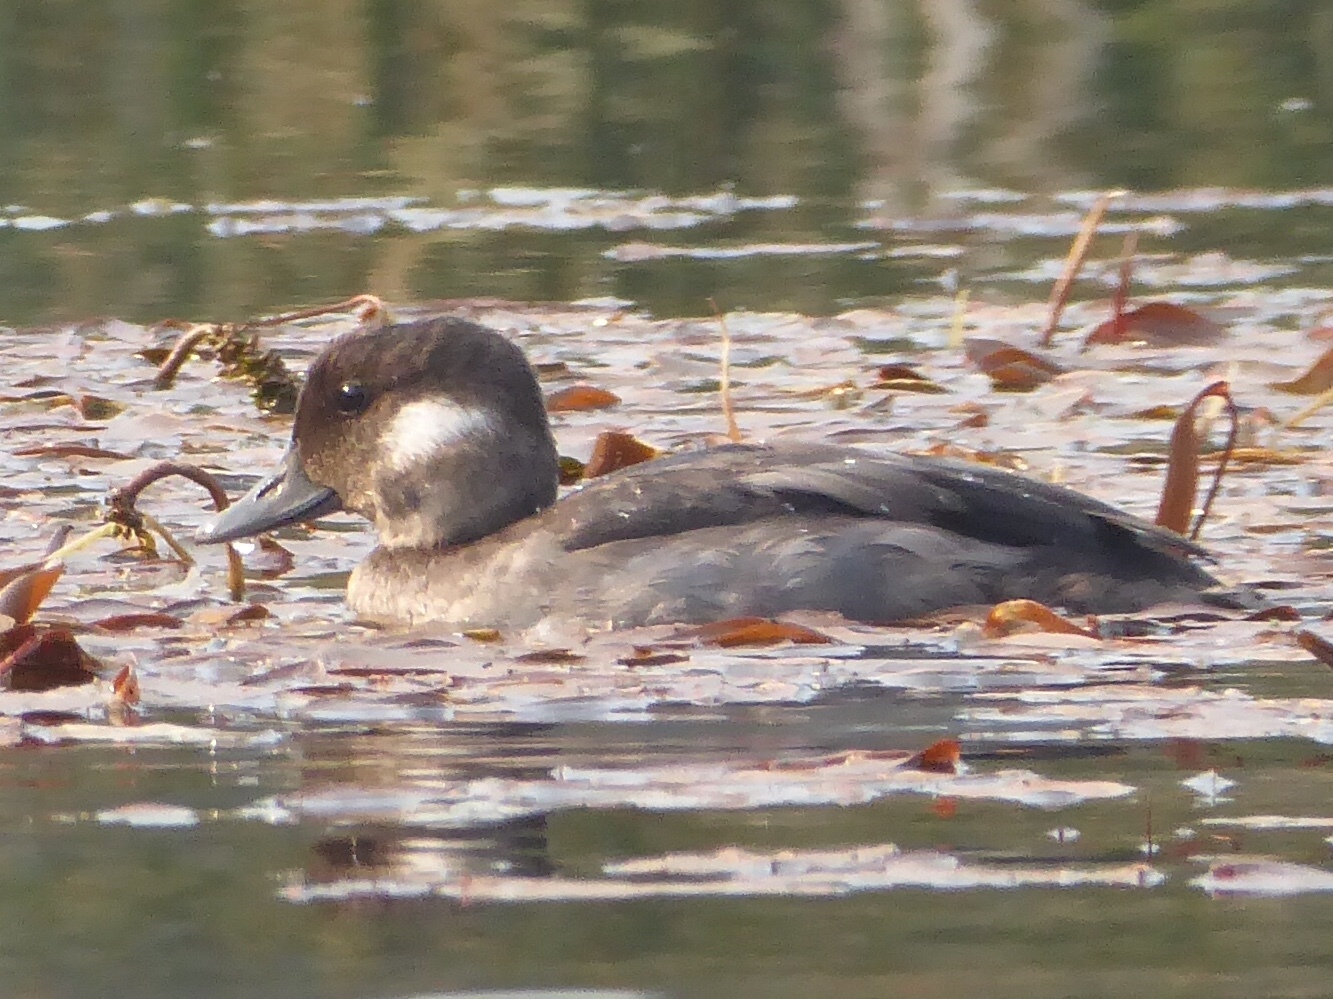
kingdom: Animalia
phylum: Chordata
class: Aves
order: Anseriformes
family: Anatidae
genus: Bucephala
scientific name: Bucephala albeola
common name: Bufflehead
